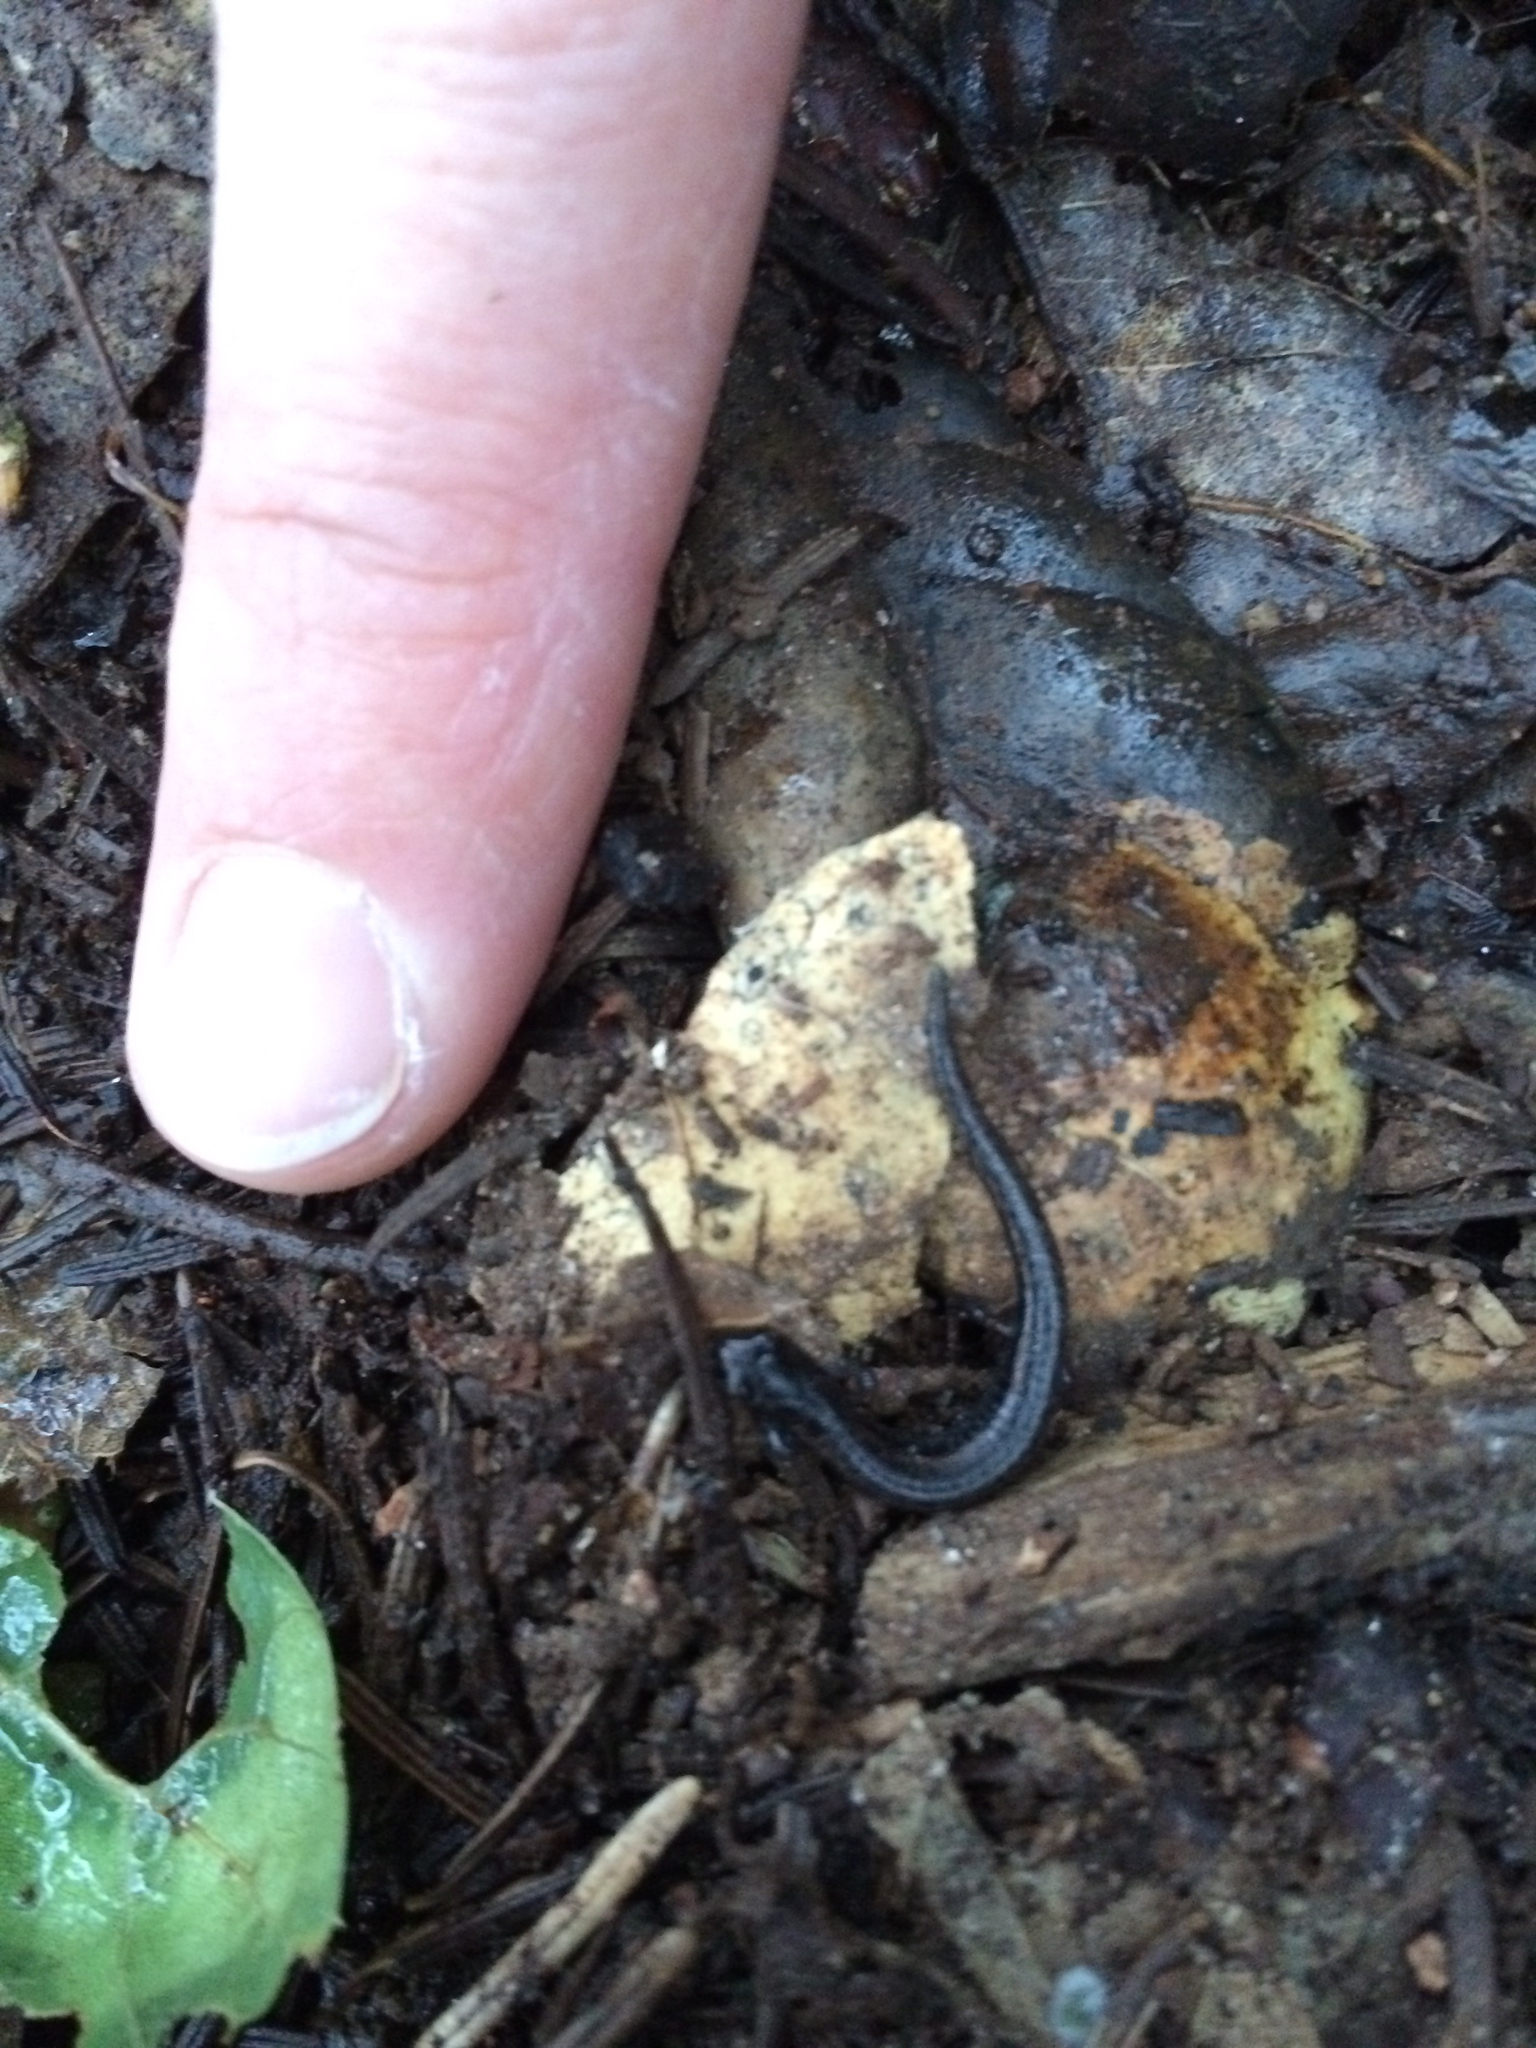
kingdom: Animalia
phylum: Chordata
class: Amphibia
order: Caudata
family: Plethodontidae
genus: Batrachoseps
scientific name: Batrachoseps attenuatus
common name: California slender salamander
